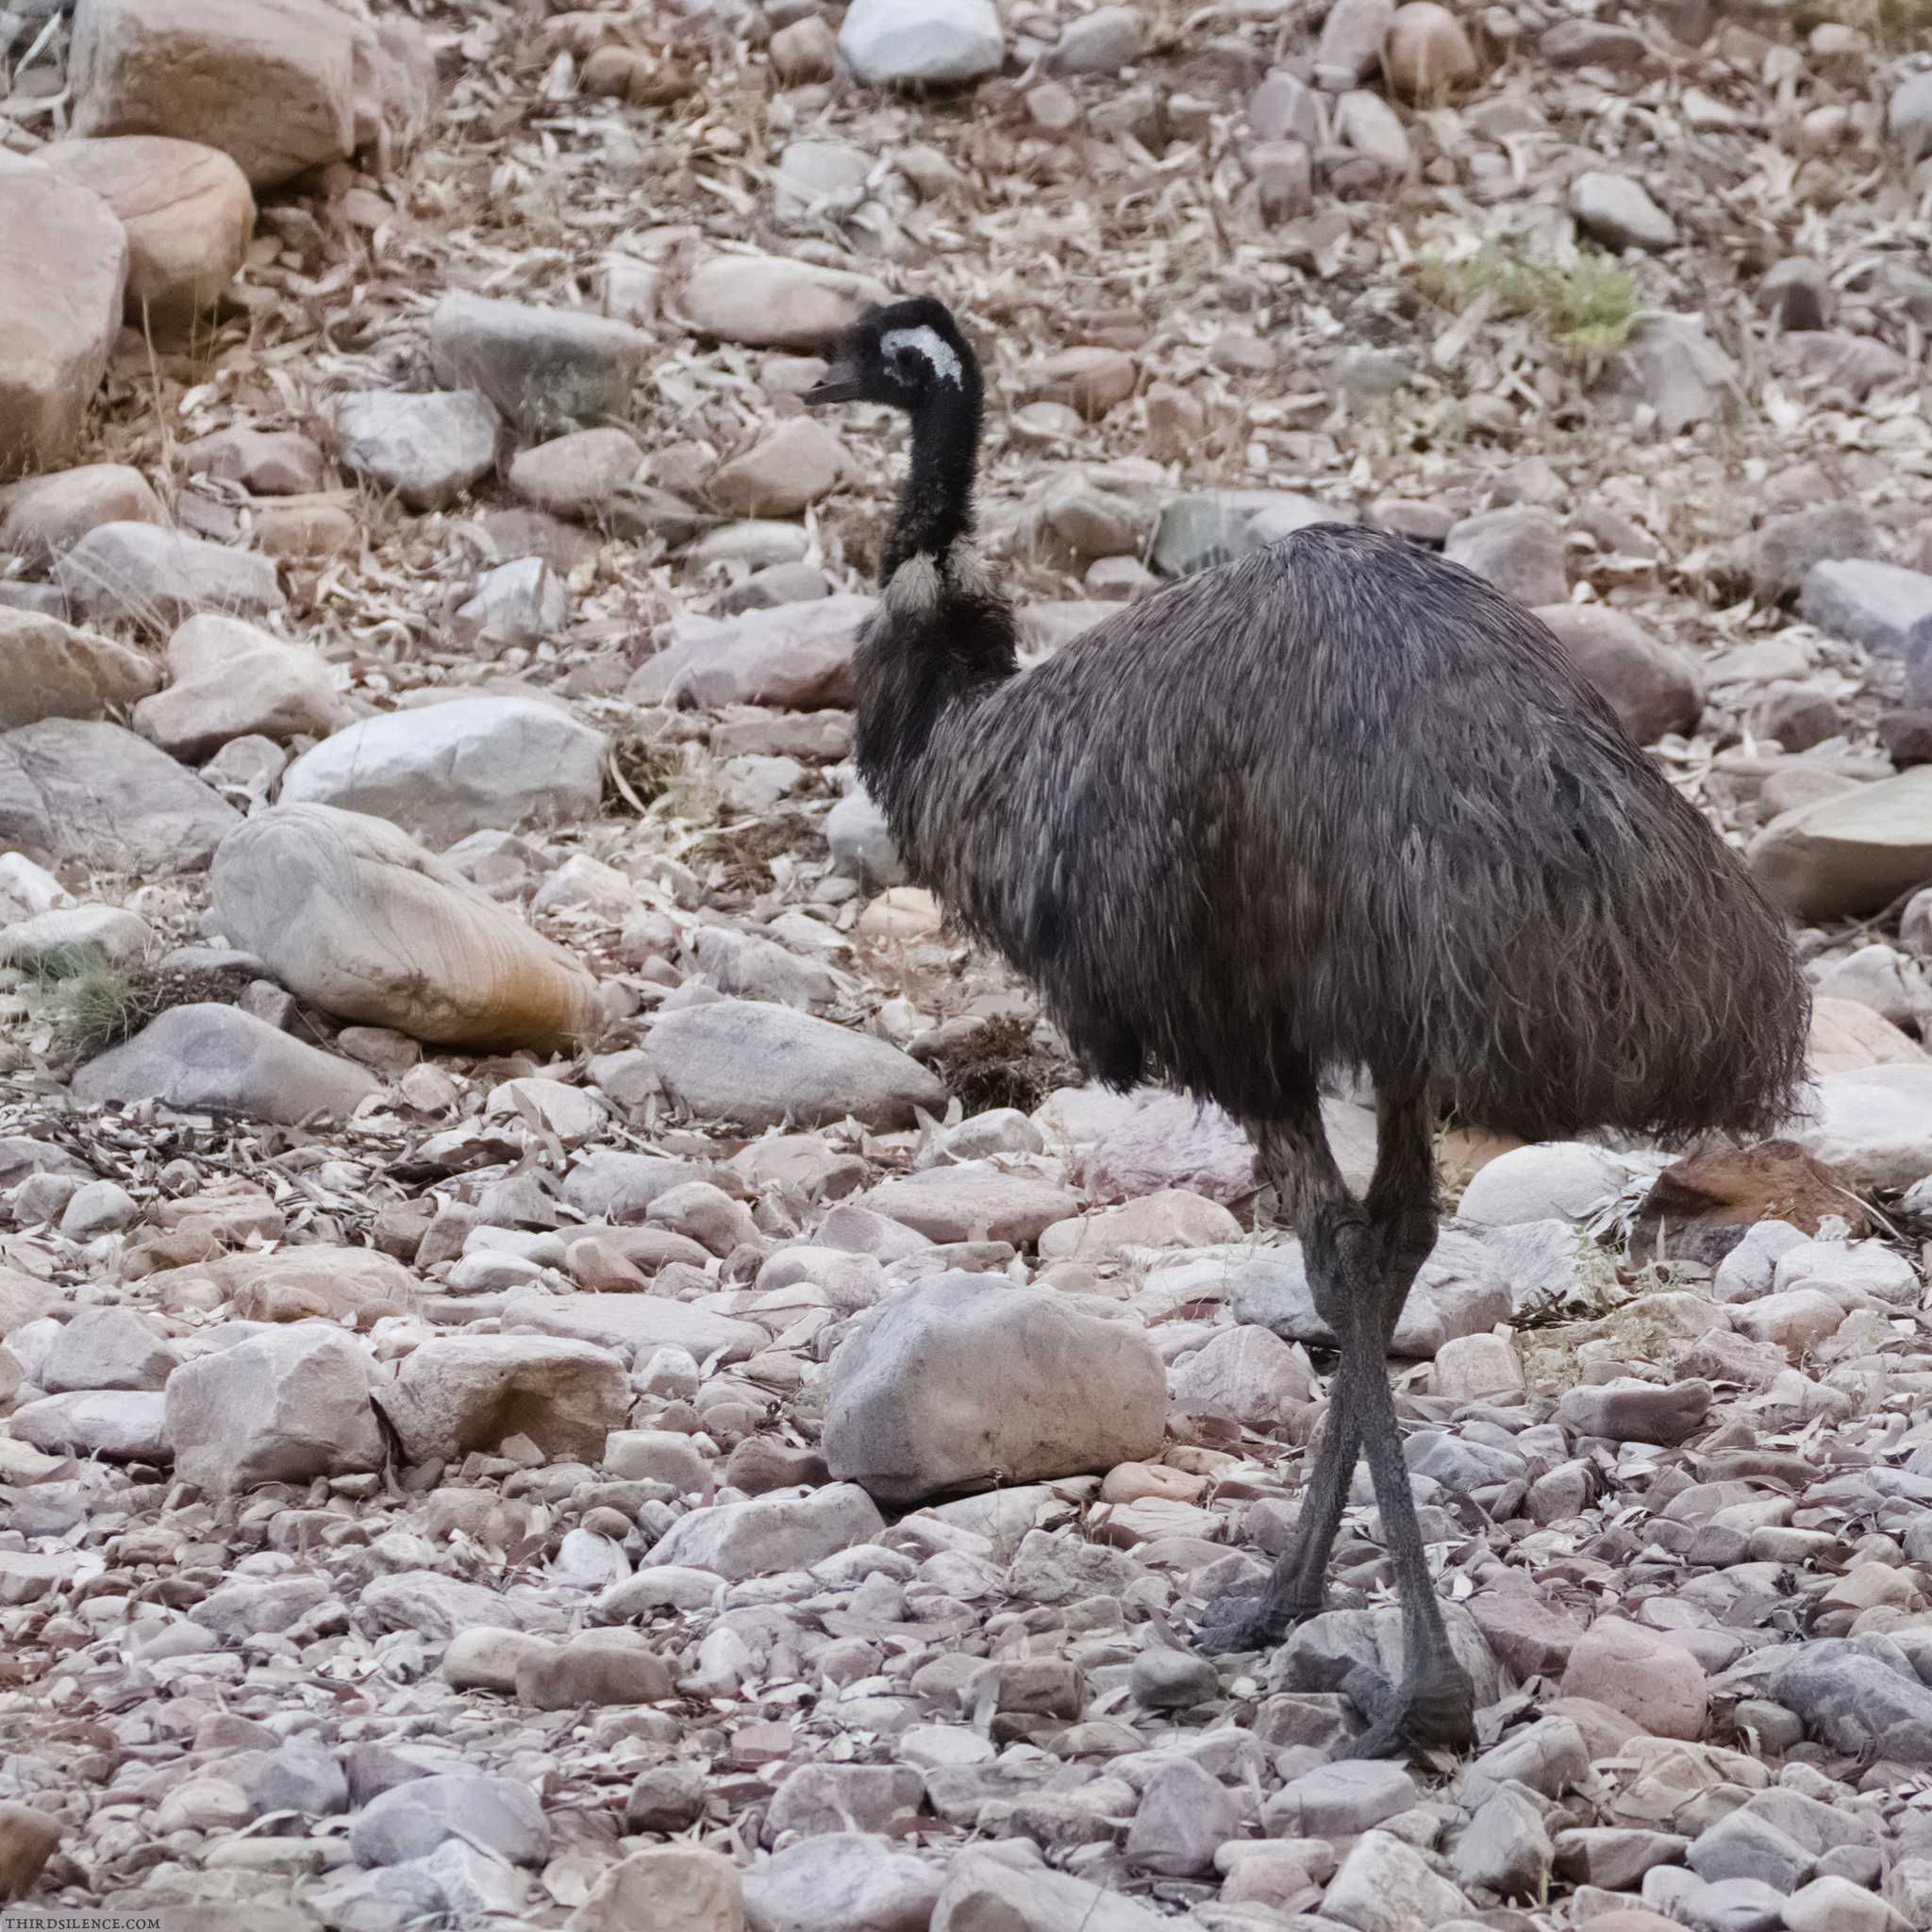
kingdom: Animalia
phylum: Chordata
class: Aves
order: Casuariiformes
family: Dromaiidae
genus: Dromaius
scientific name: Dromaius novaehollandiae
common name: Emu
